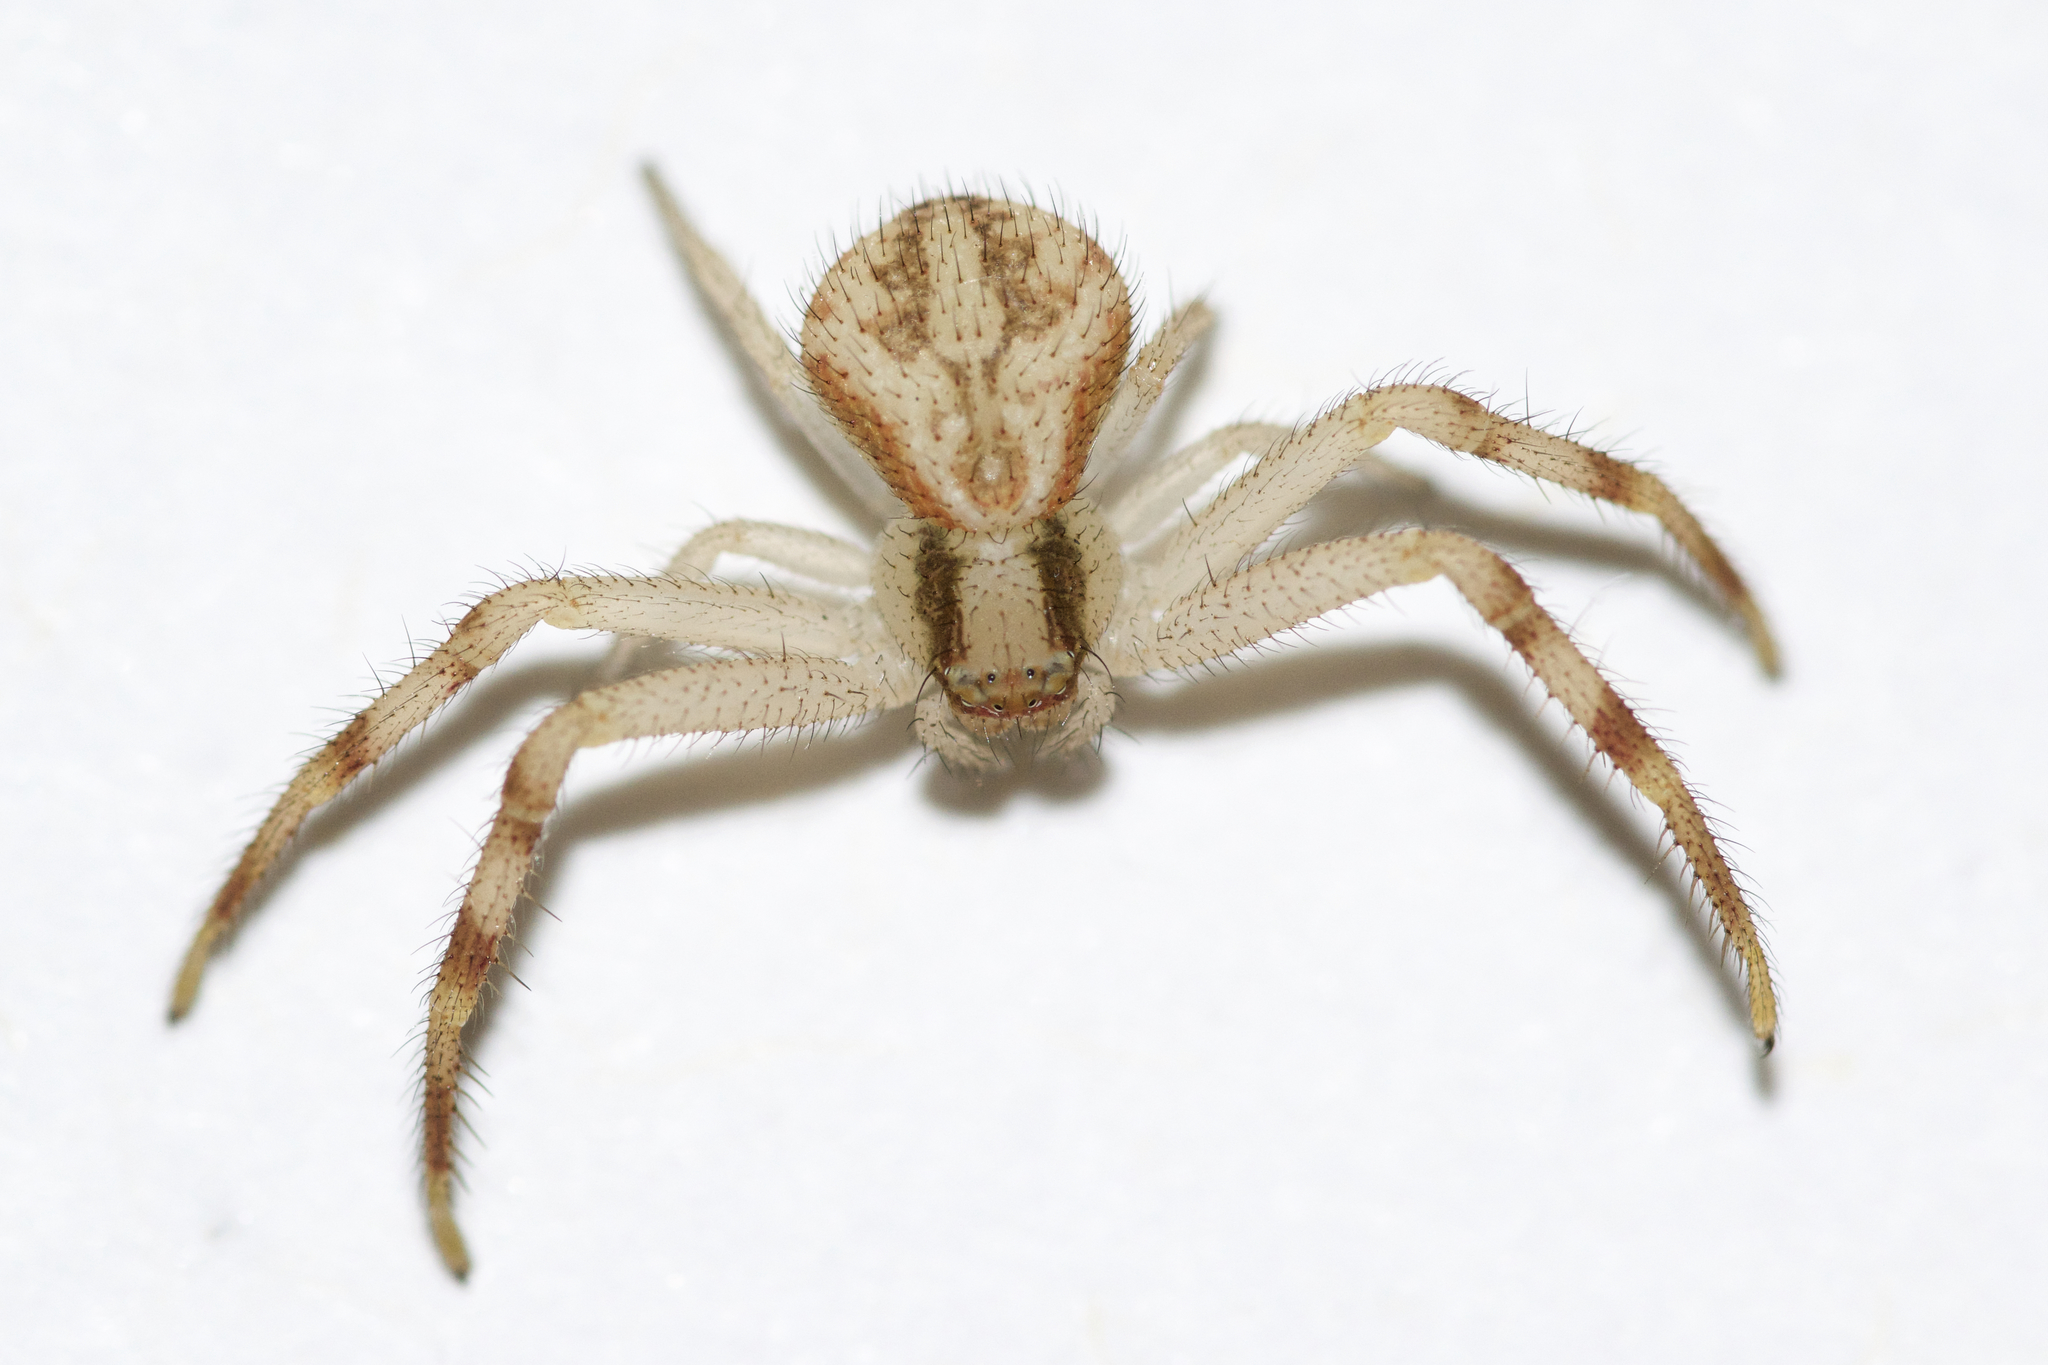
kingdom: Animalia
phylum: Arthropoda
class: Arachnida
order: Araneae
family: Thomisidae
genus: Mecaphesa
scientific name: Mecaphesa asperata
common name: Crab spiders
